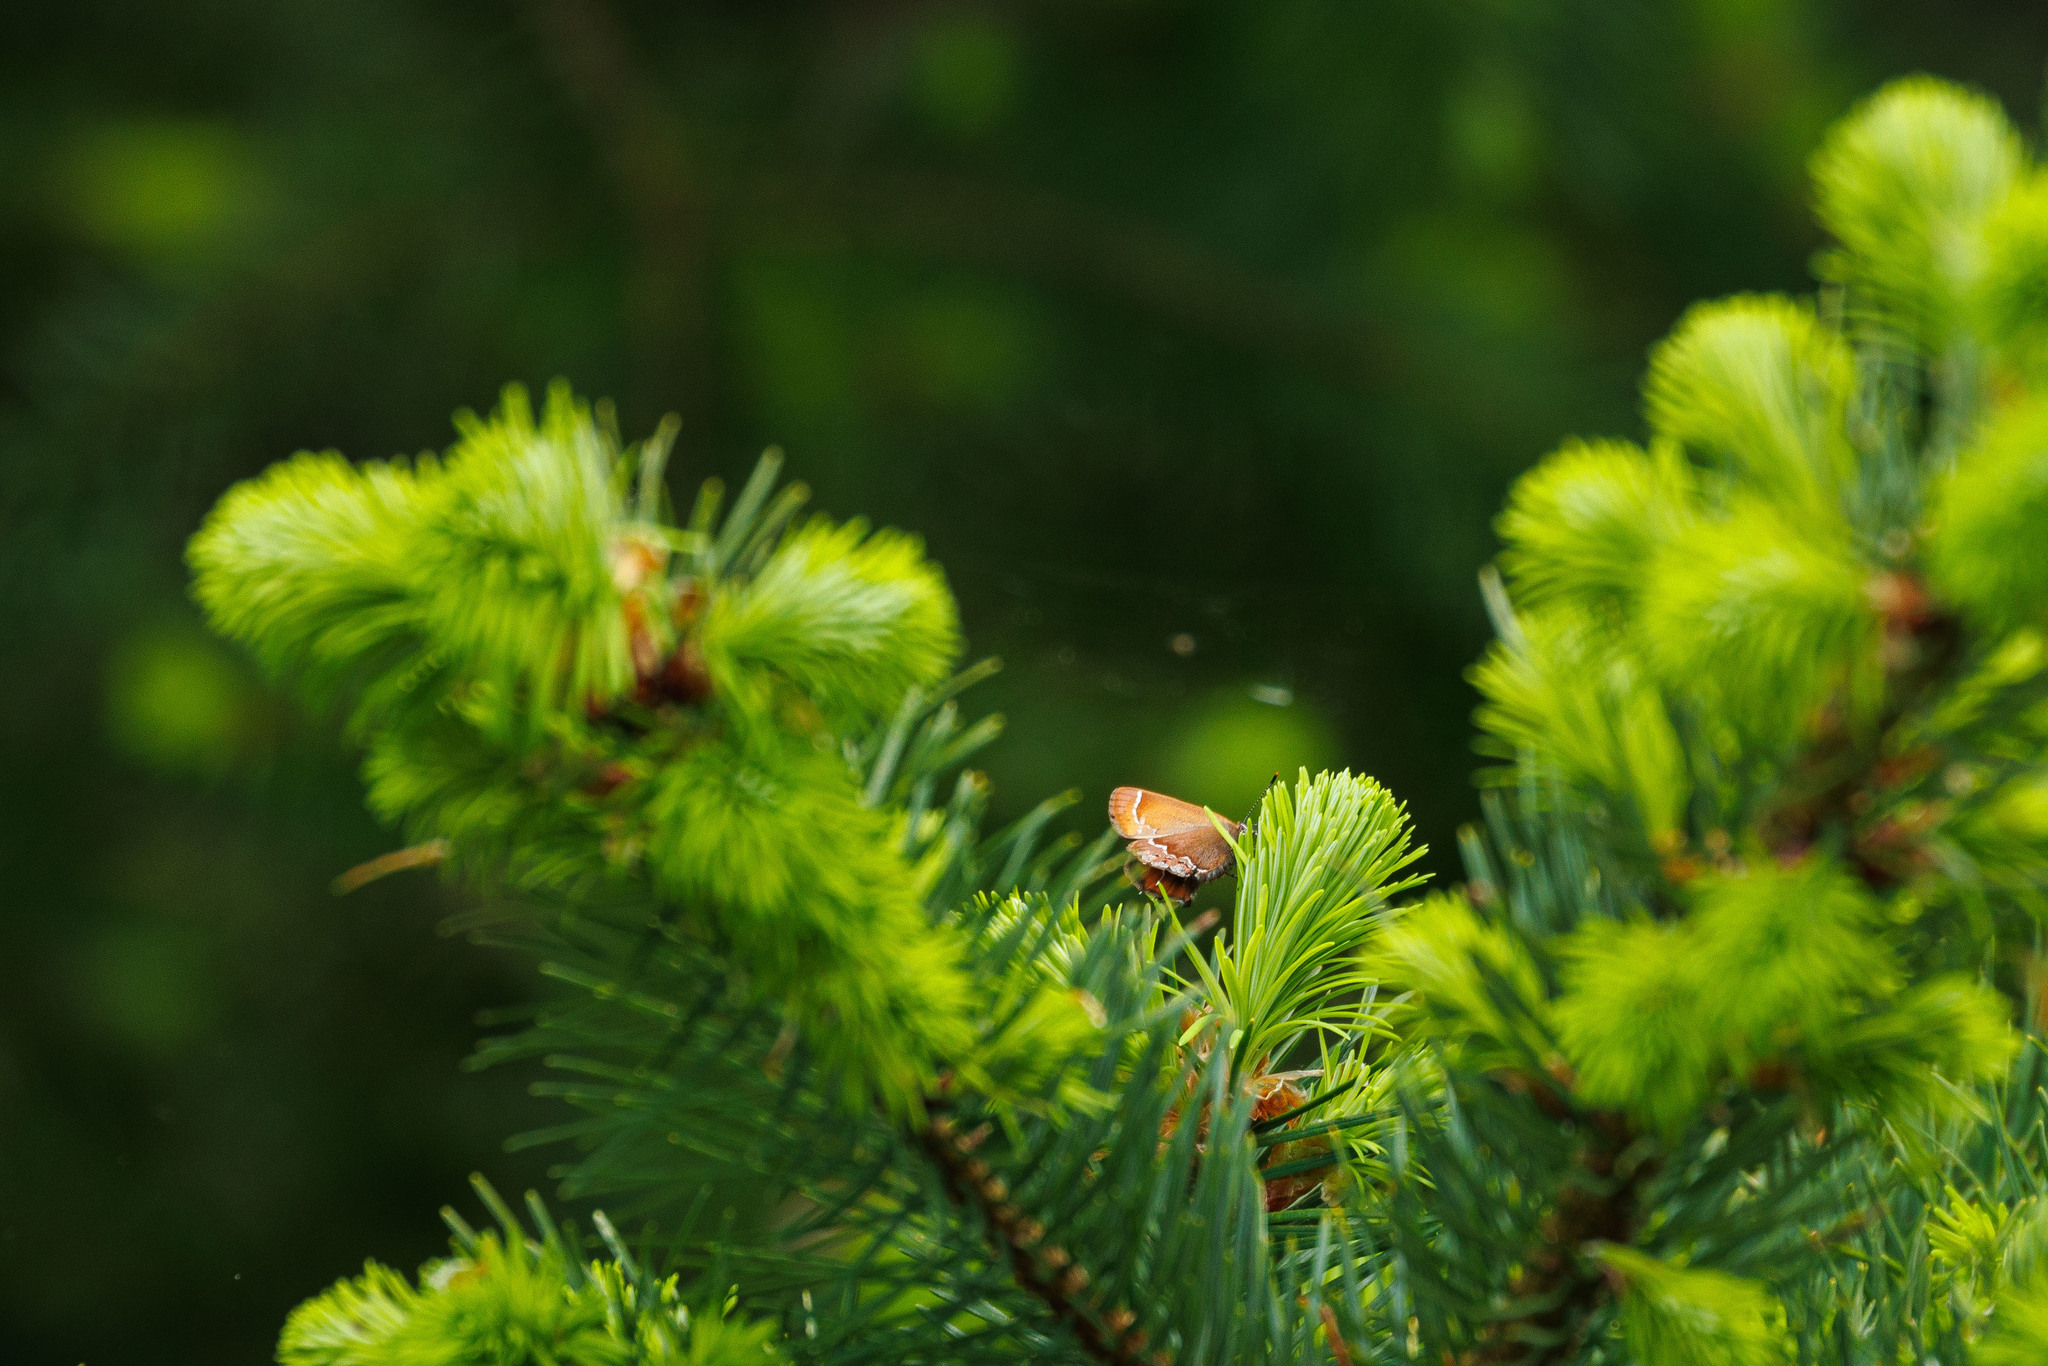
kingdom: Animalia
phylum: Arthropoda
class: Insecta
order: Lepidoptera
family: Lycaenidae
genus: Mitoura
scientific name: Mitoura gryneus
